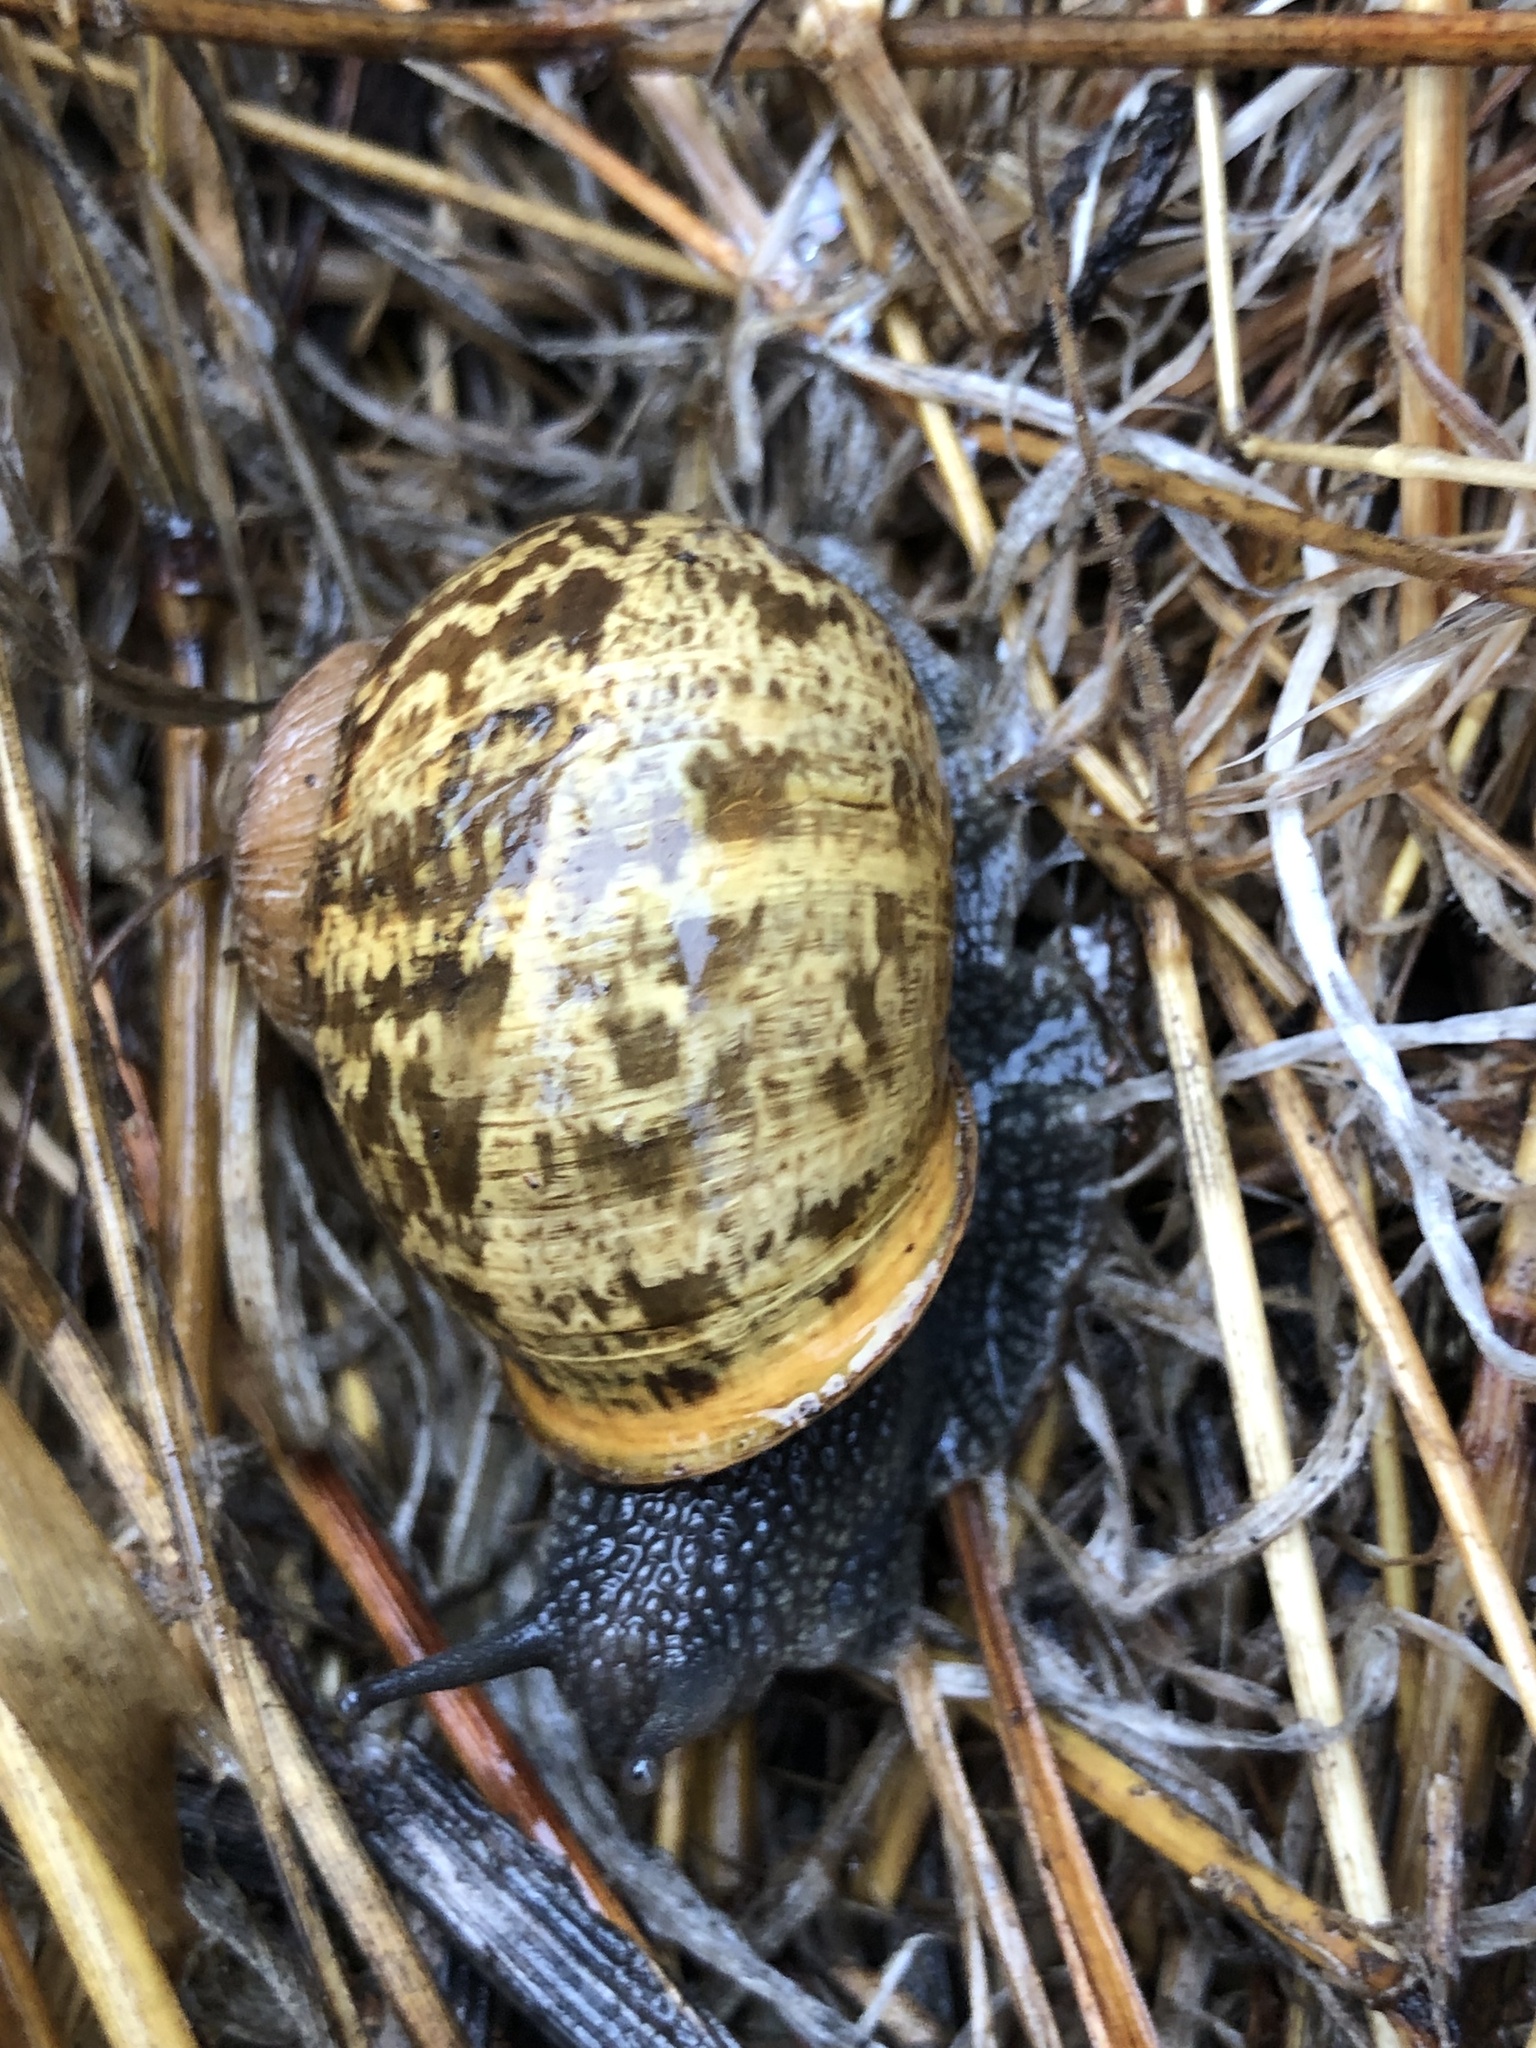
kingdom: Animalia
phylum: Mollusca
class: Gastropoda
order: Stylommatophora
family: Helicidae
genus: Cornu
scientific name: Cornu aspersum
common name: Brown garden snail
